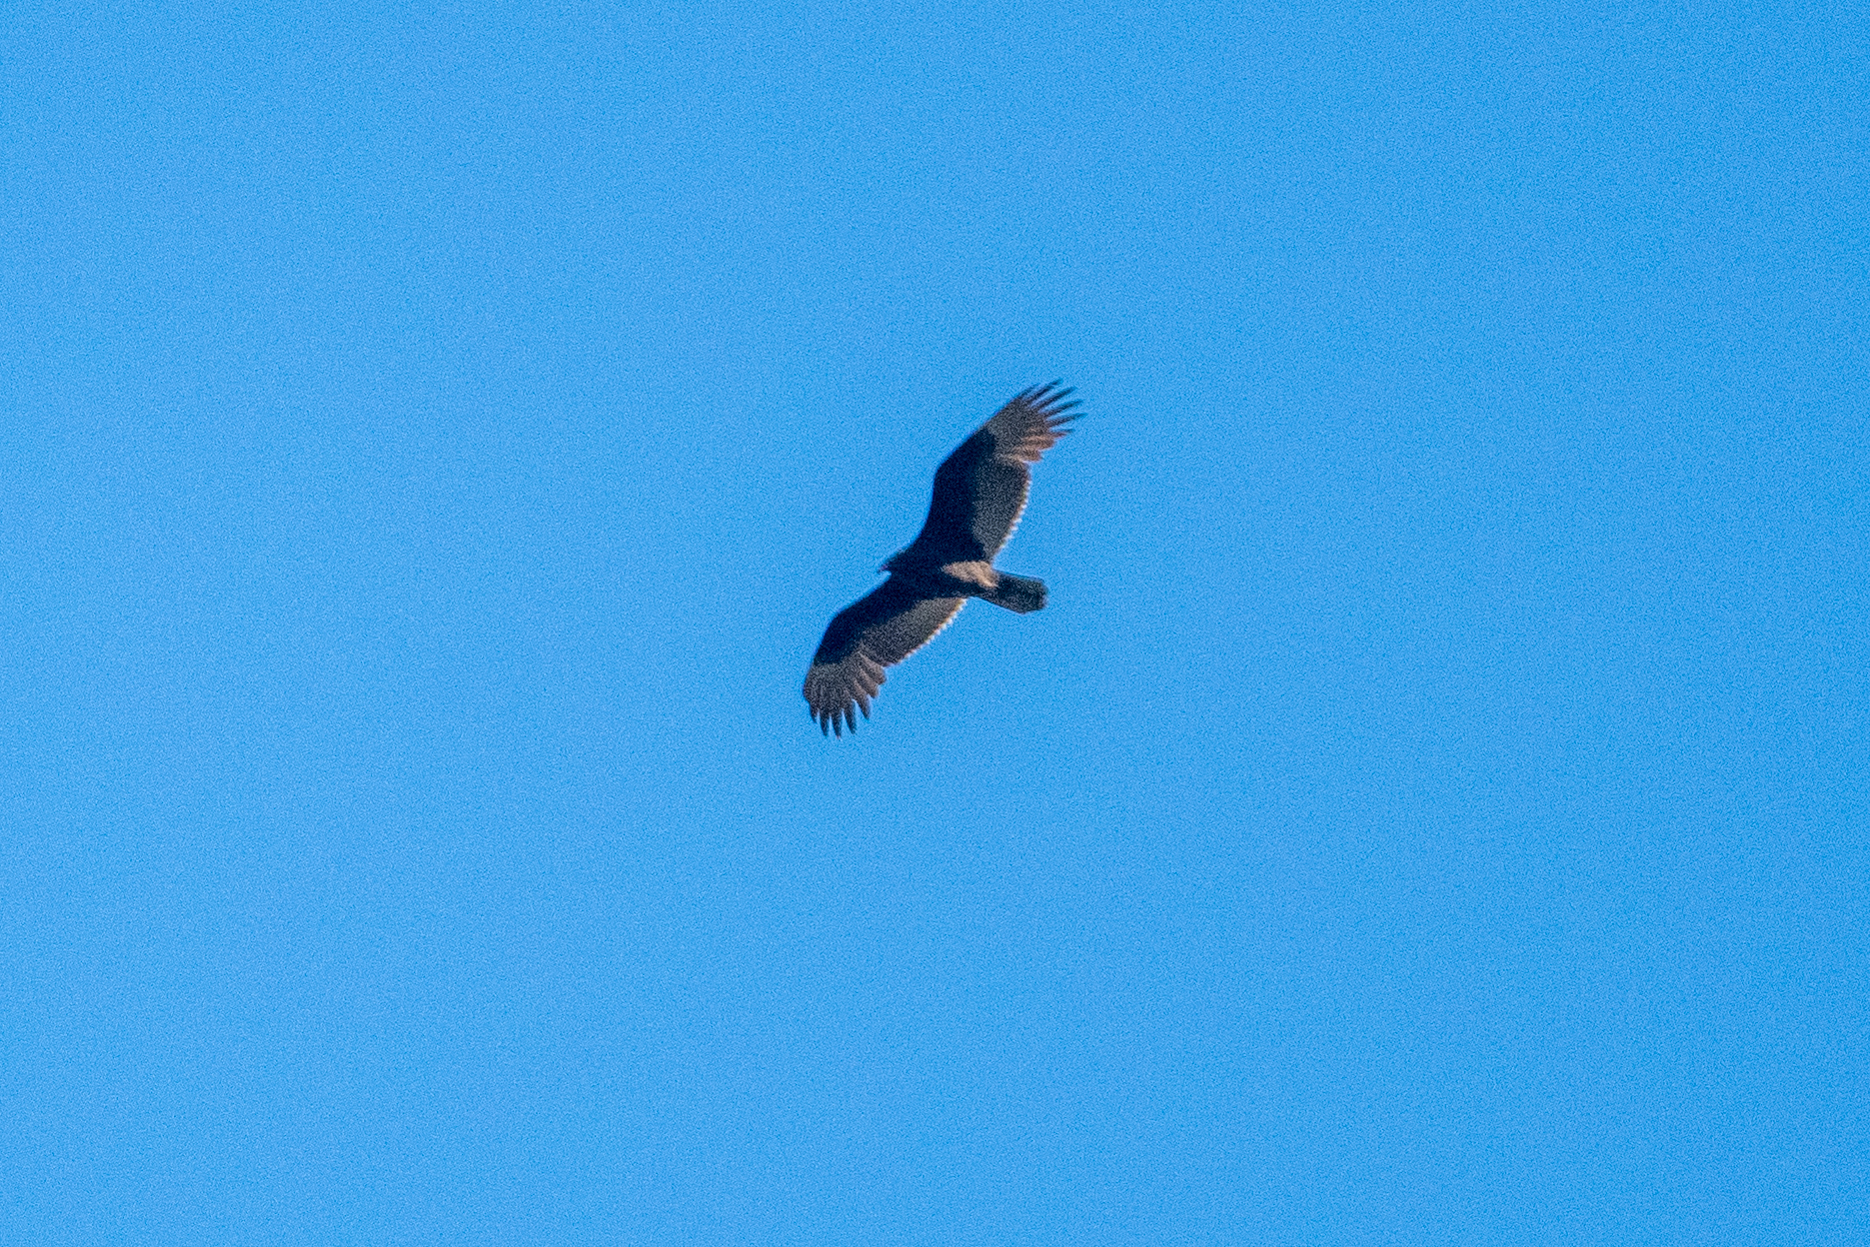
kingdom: Animalia
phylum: Chordata
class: Aves
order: Accipitriformes
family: Cathartidae
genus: Cathartes
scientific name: Cathartes aura
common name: Turkey vulture
